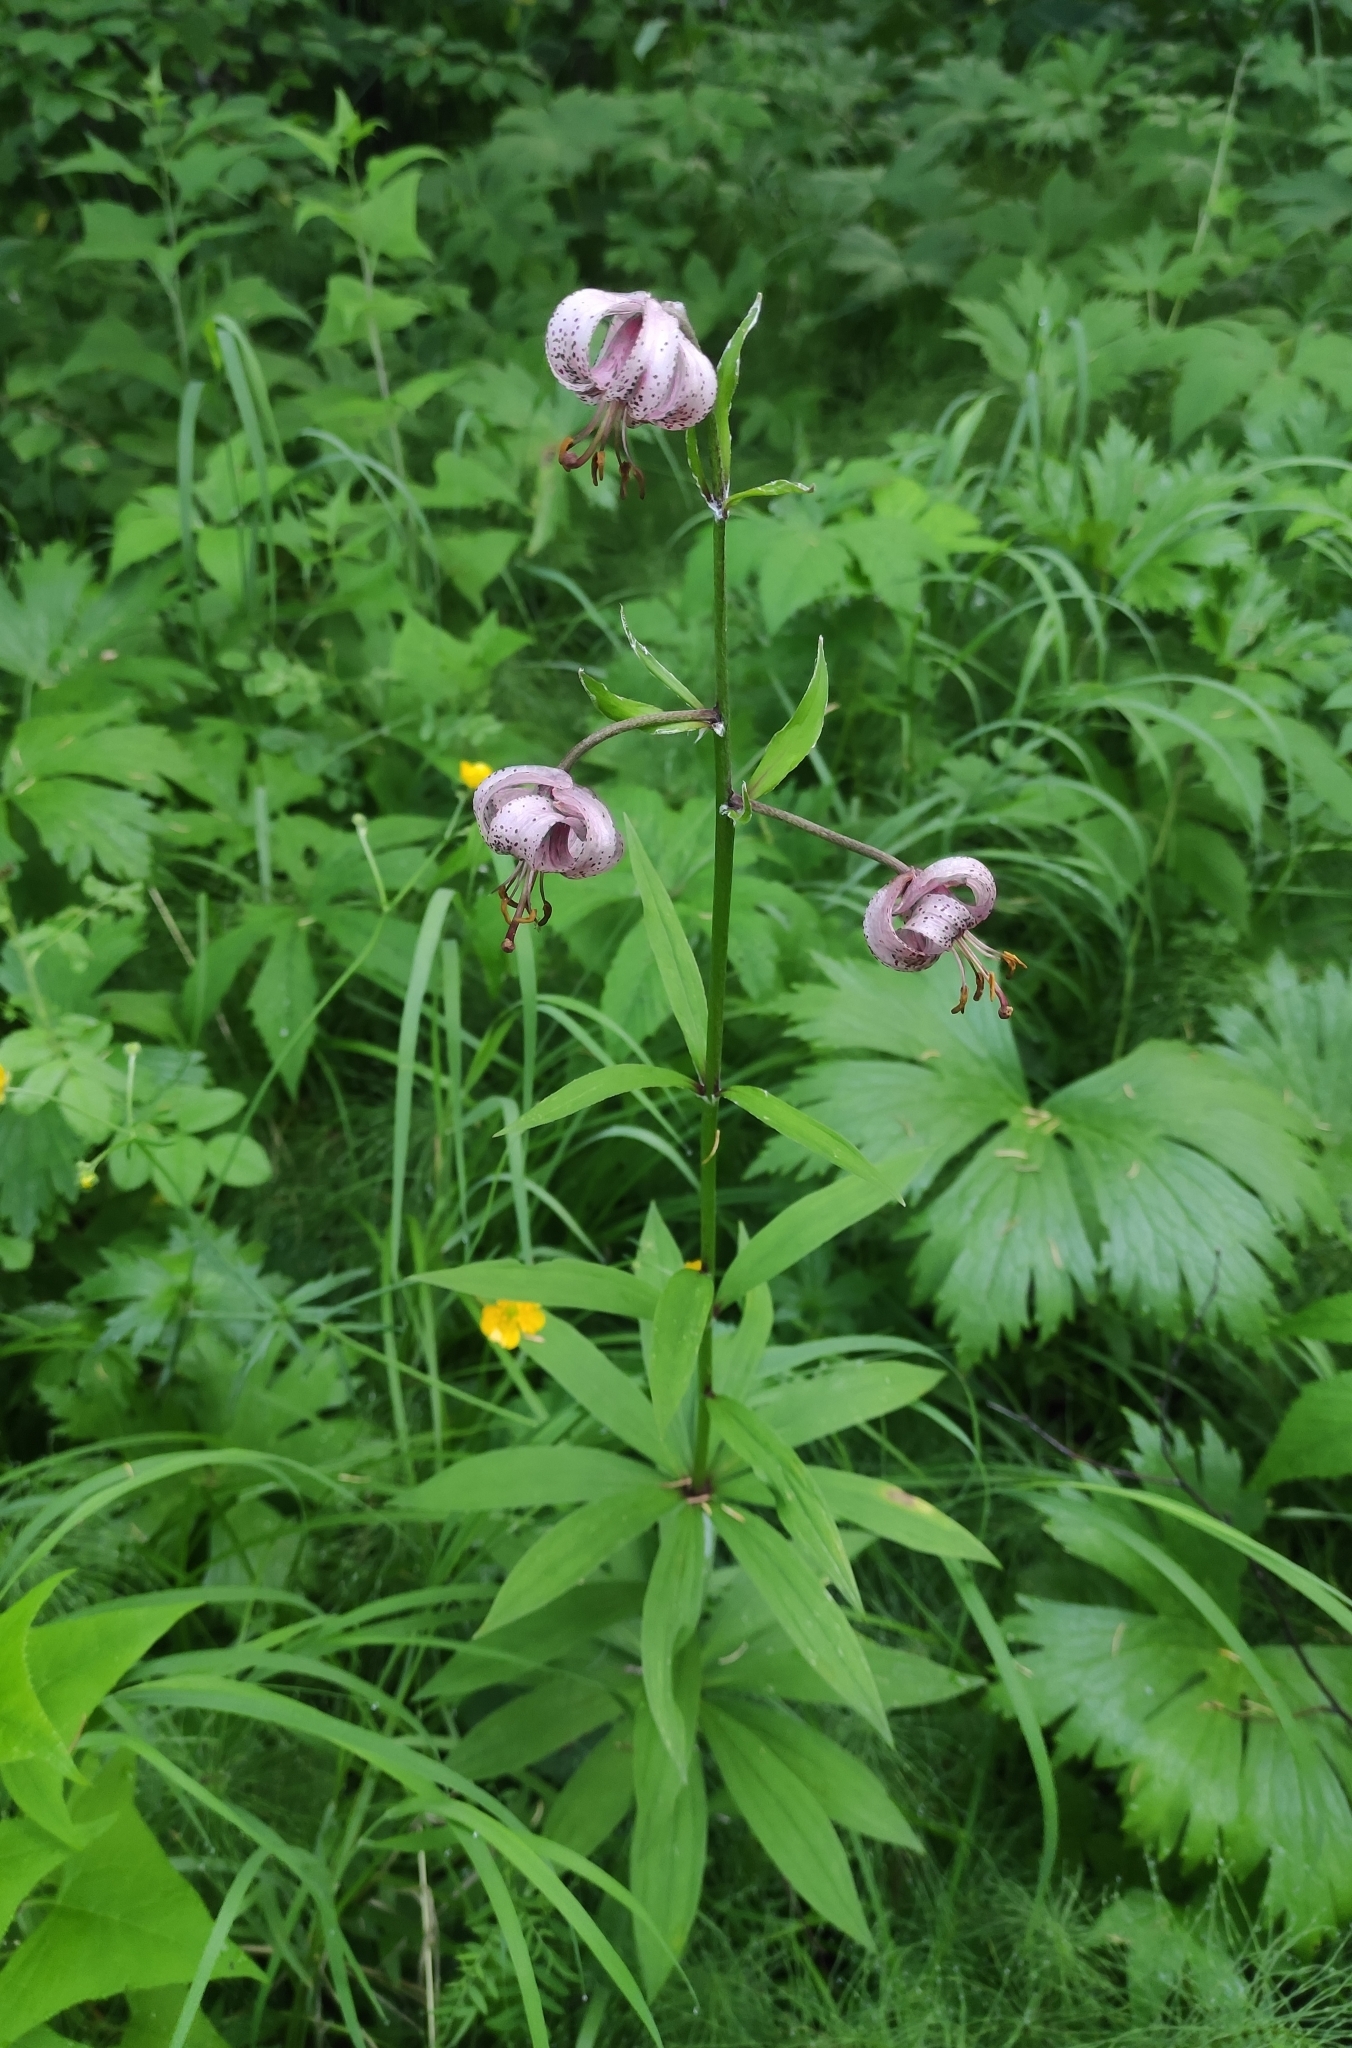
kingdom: Plantae
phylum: Tracheophyta
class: Liliopsida
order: Liliales
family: Liliaceae
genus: Lilium
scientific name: Lilium martagon
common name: Martagon lily
